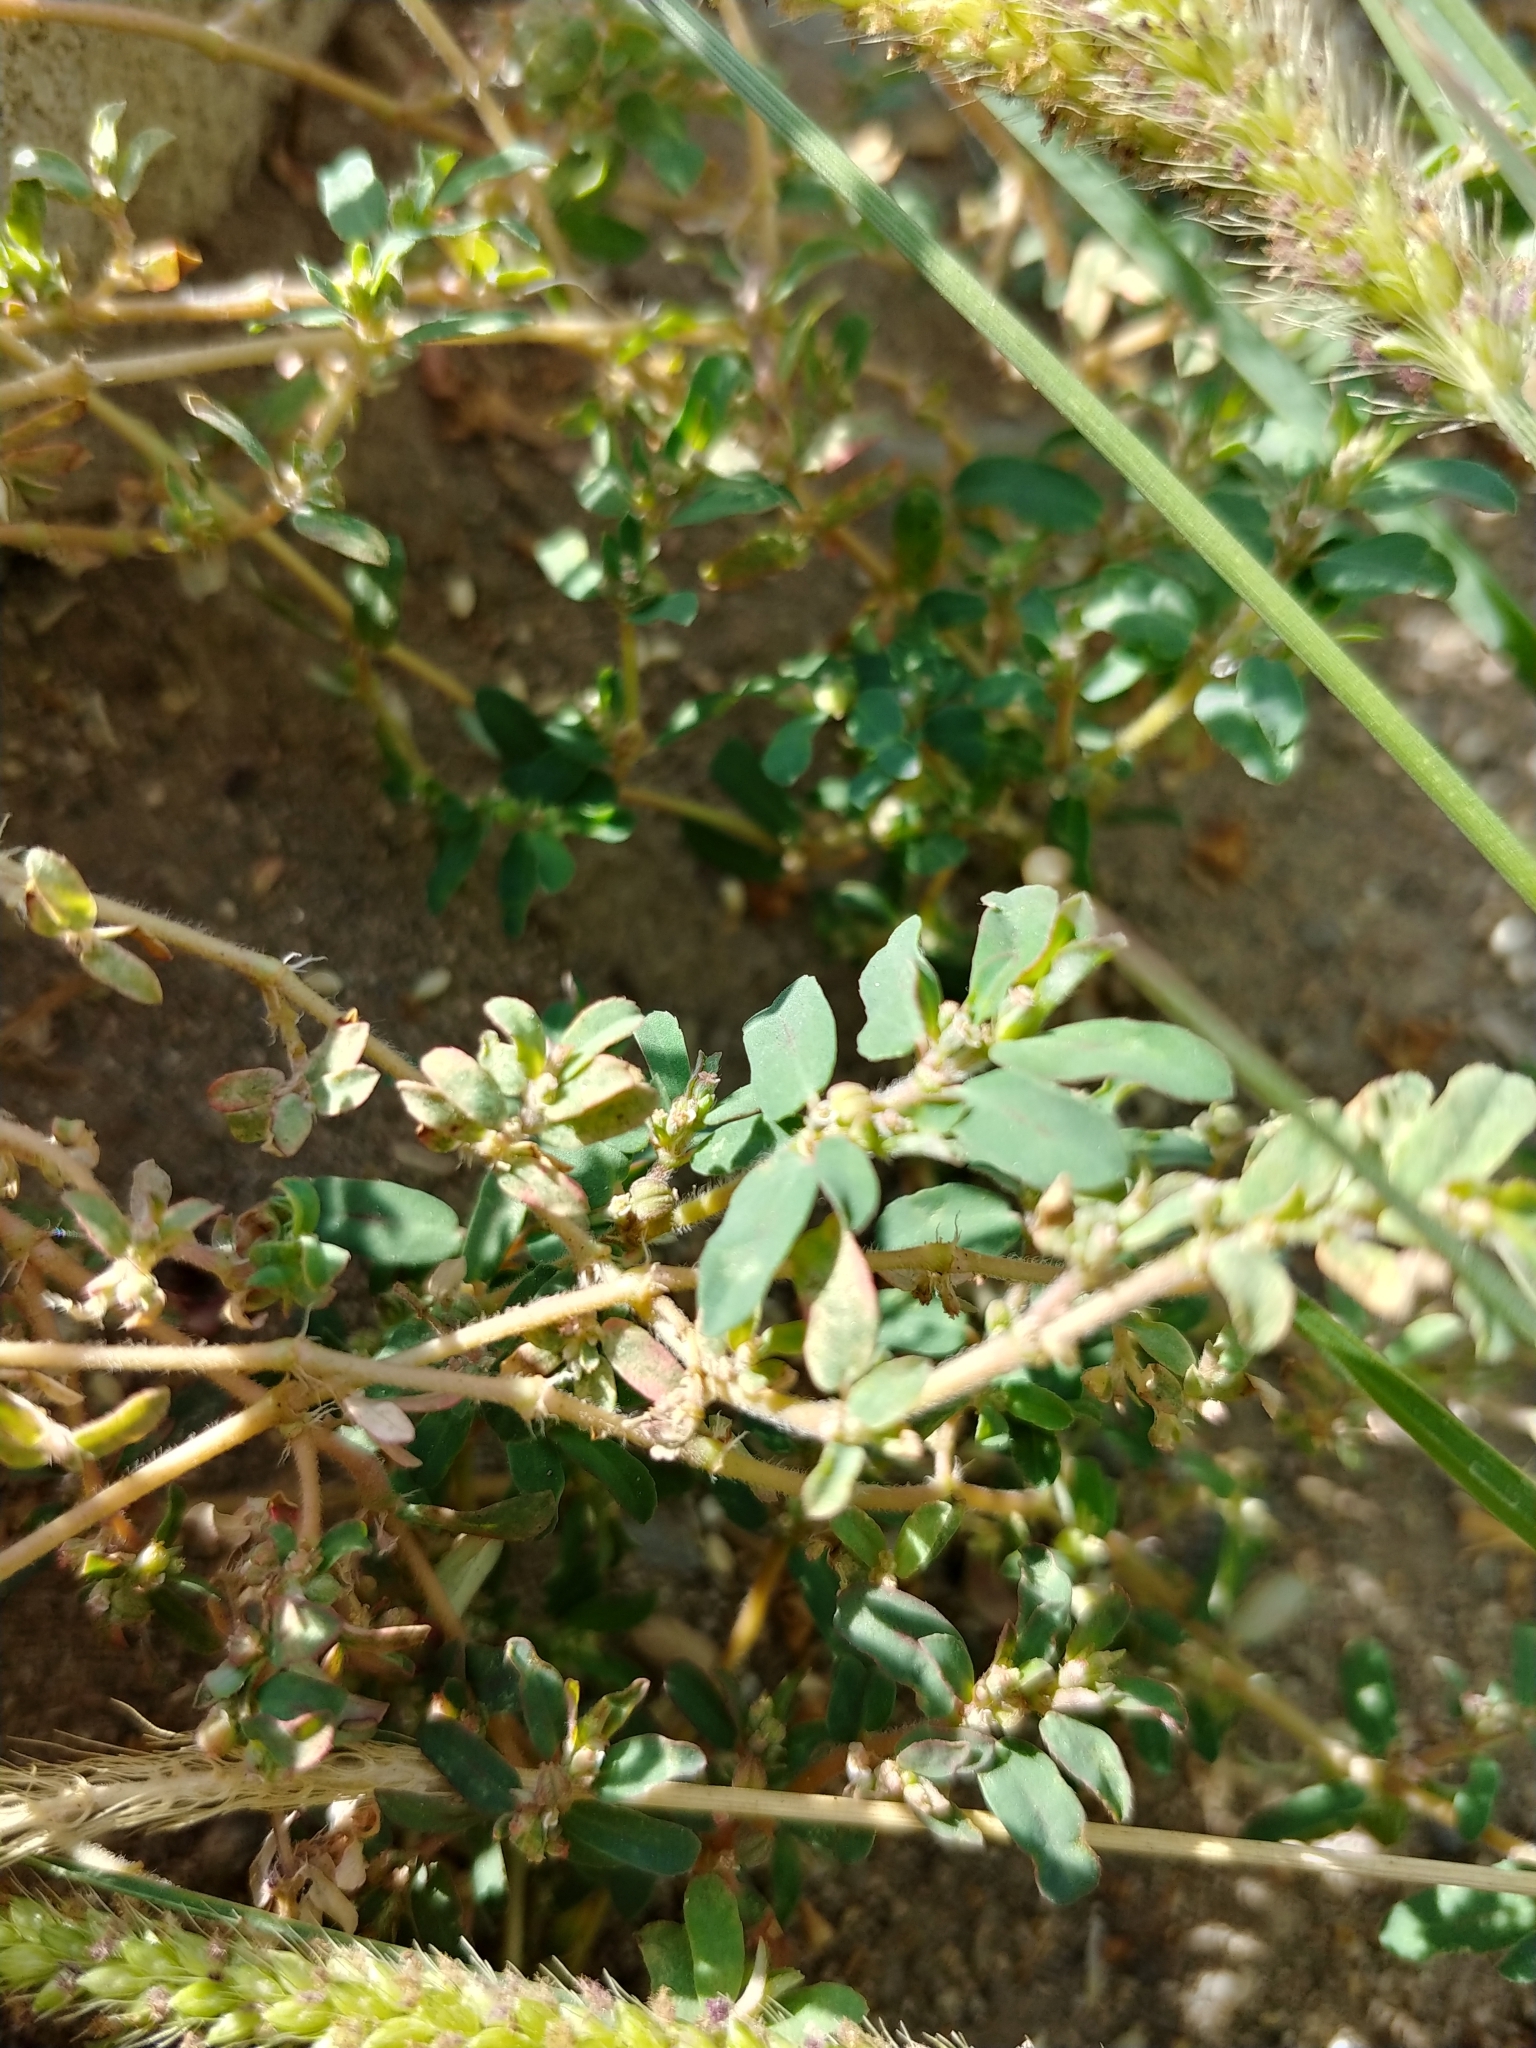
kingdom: Plantae
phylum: Tracheophyta
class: Magnoliopsida
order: Malpighiales
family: Euphorbiaceae
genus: Euphorbia
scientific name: Euphorbia maculata
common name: Spotted spurge
